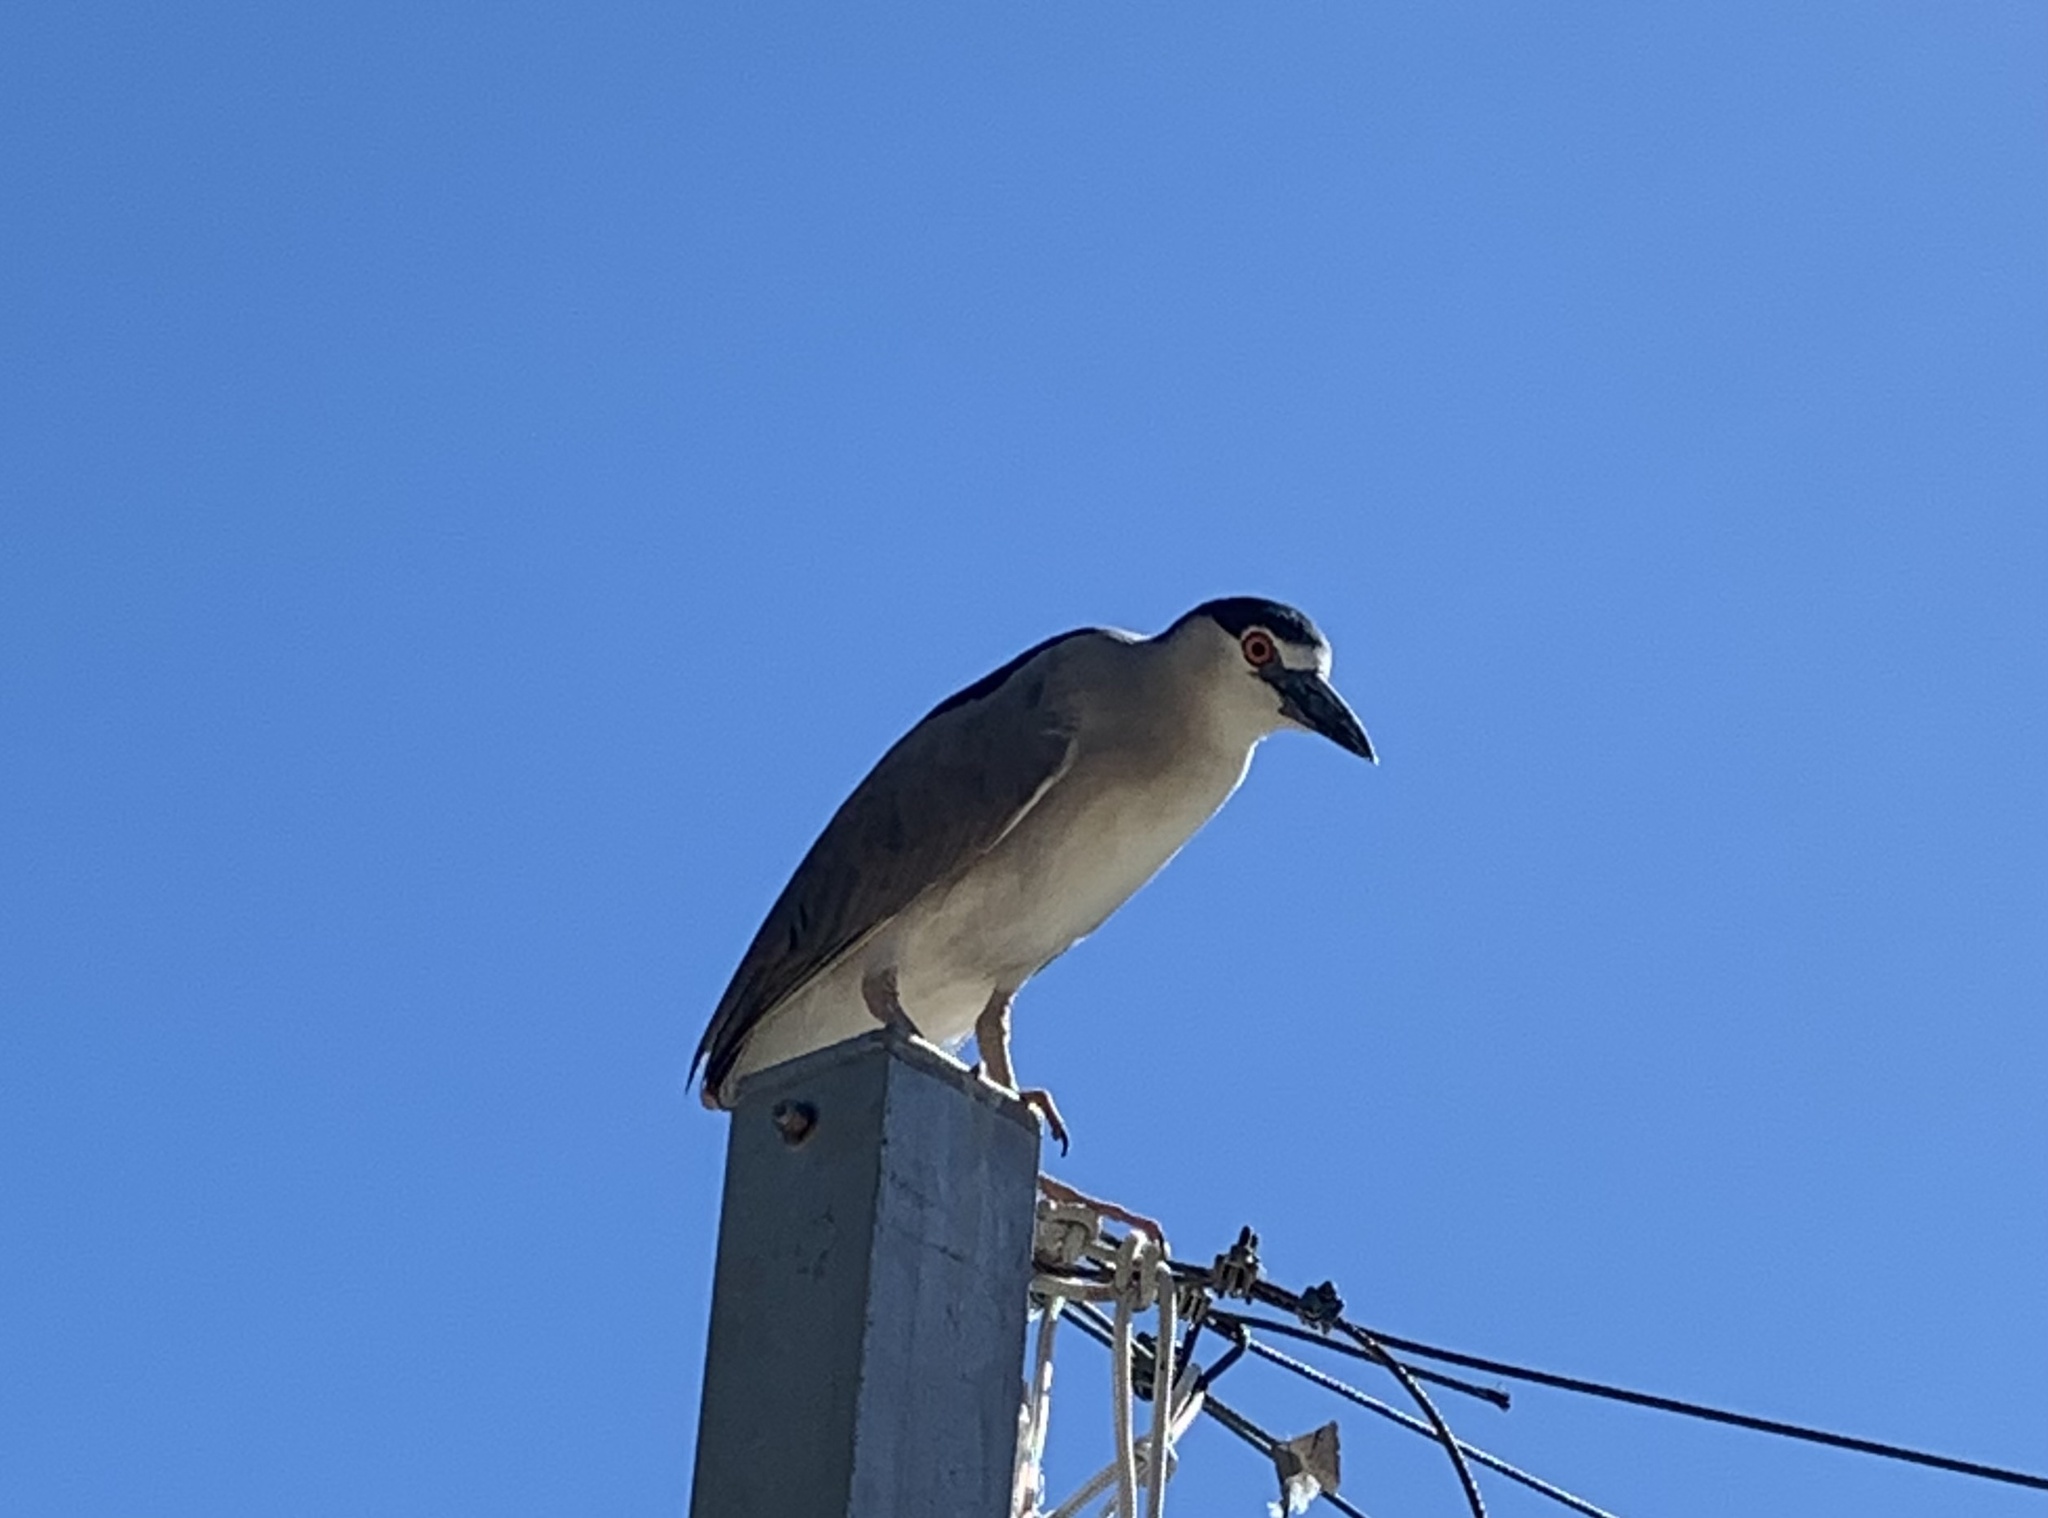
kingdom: Animalia
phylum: Chordata
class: Aves
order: Pelecaniformes
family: Ardeidae
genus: Nycticorax
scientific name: Nycticorax nycticorax
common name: Black-crowned night heron
